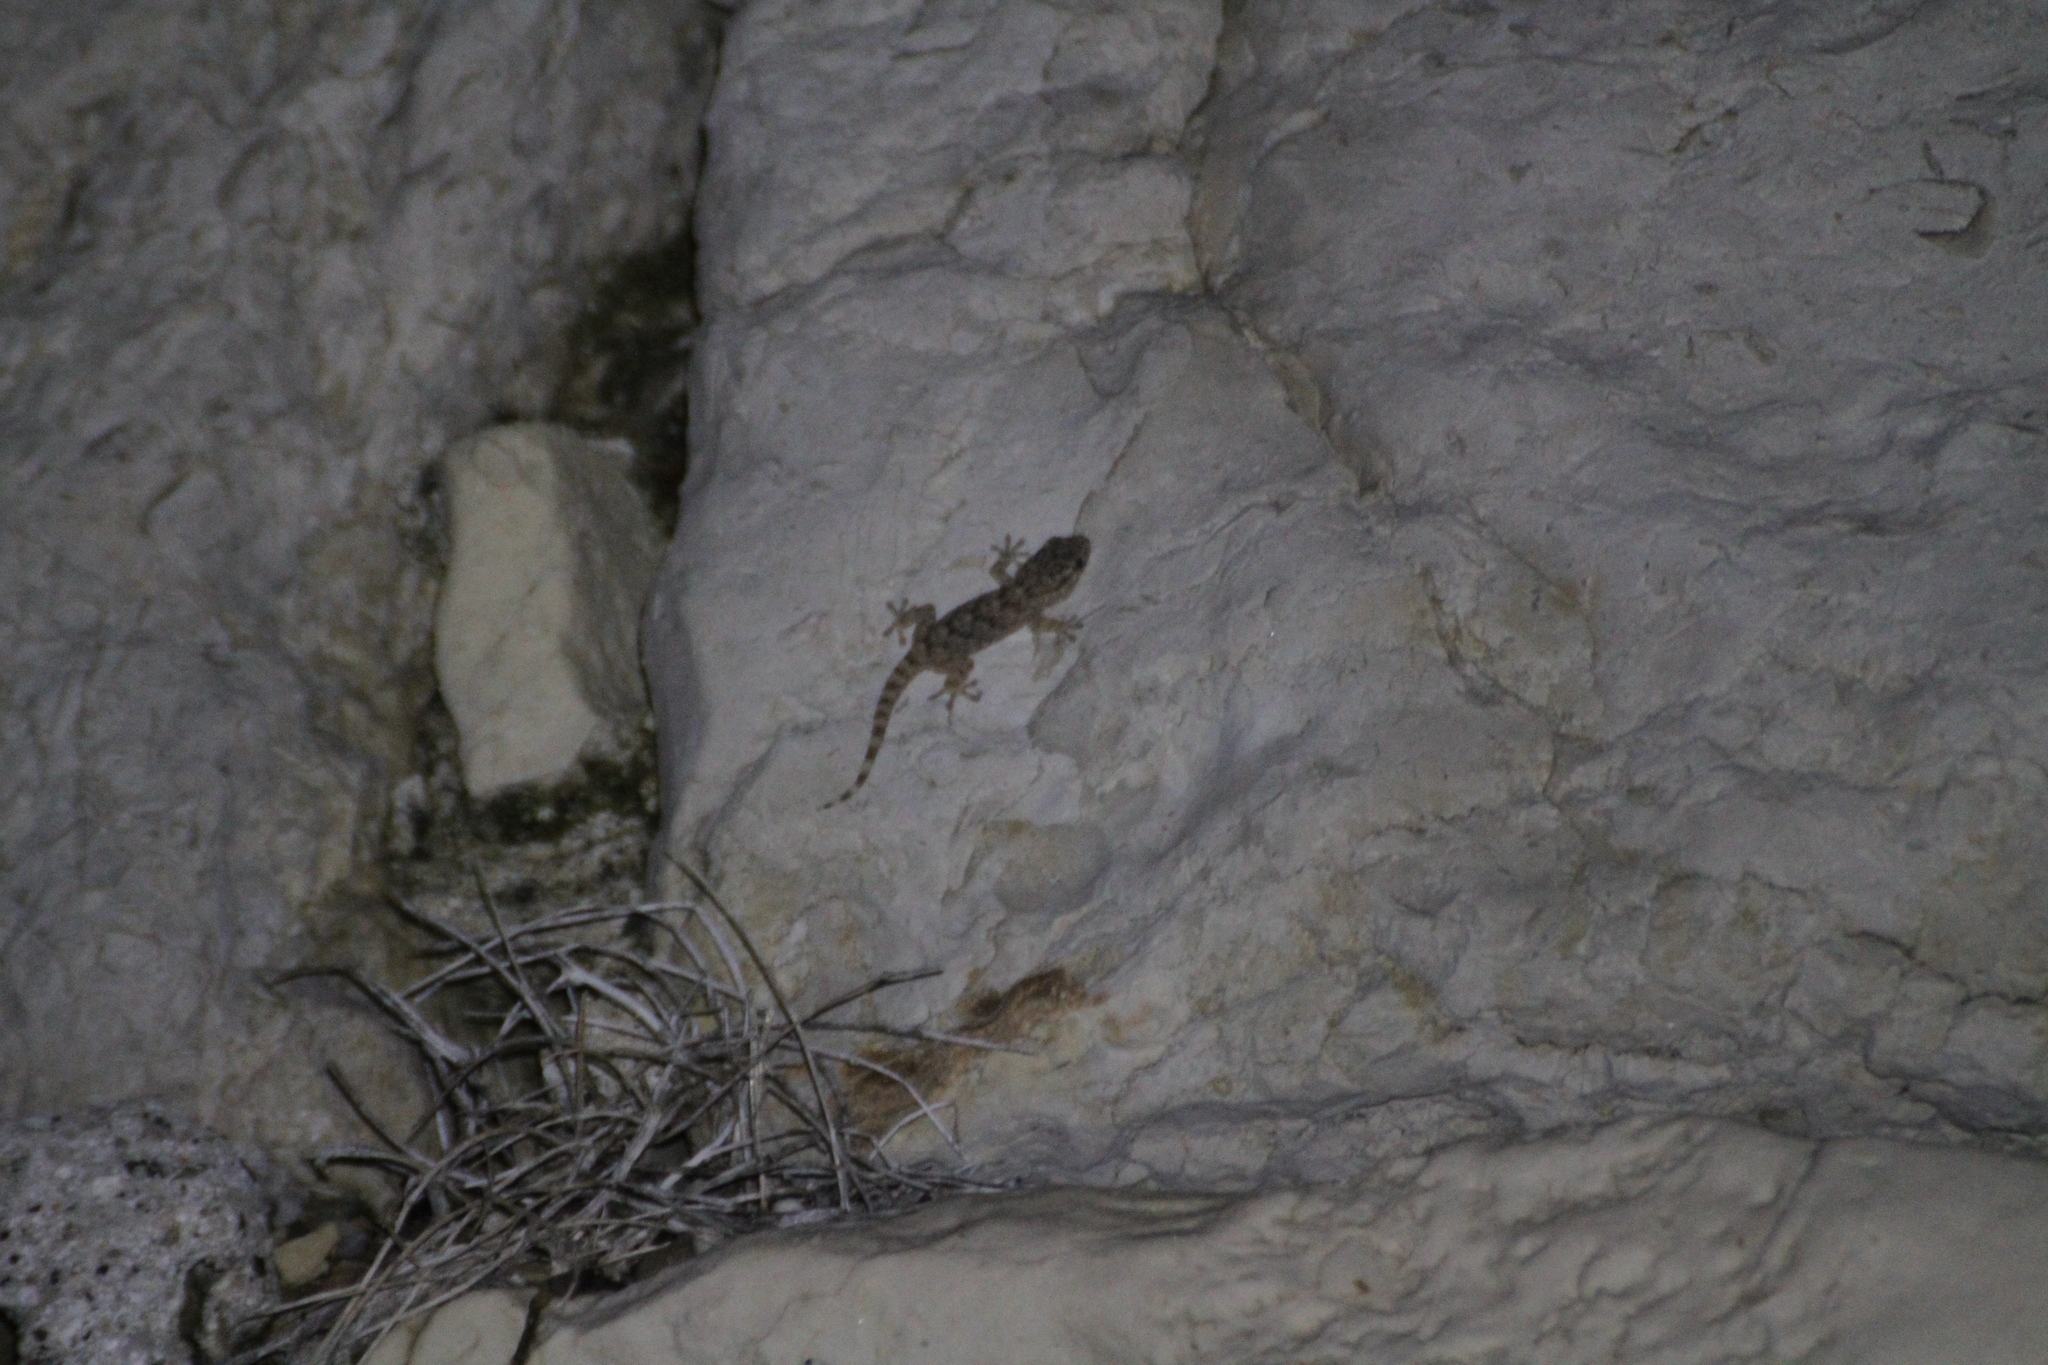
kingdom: Animalia
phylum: Chordata
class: Squamata
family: Phyllodactylidae
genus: Tarentola
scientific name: Tarentola mauritanica
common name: Moorish gecko
